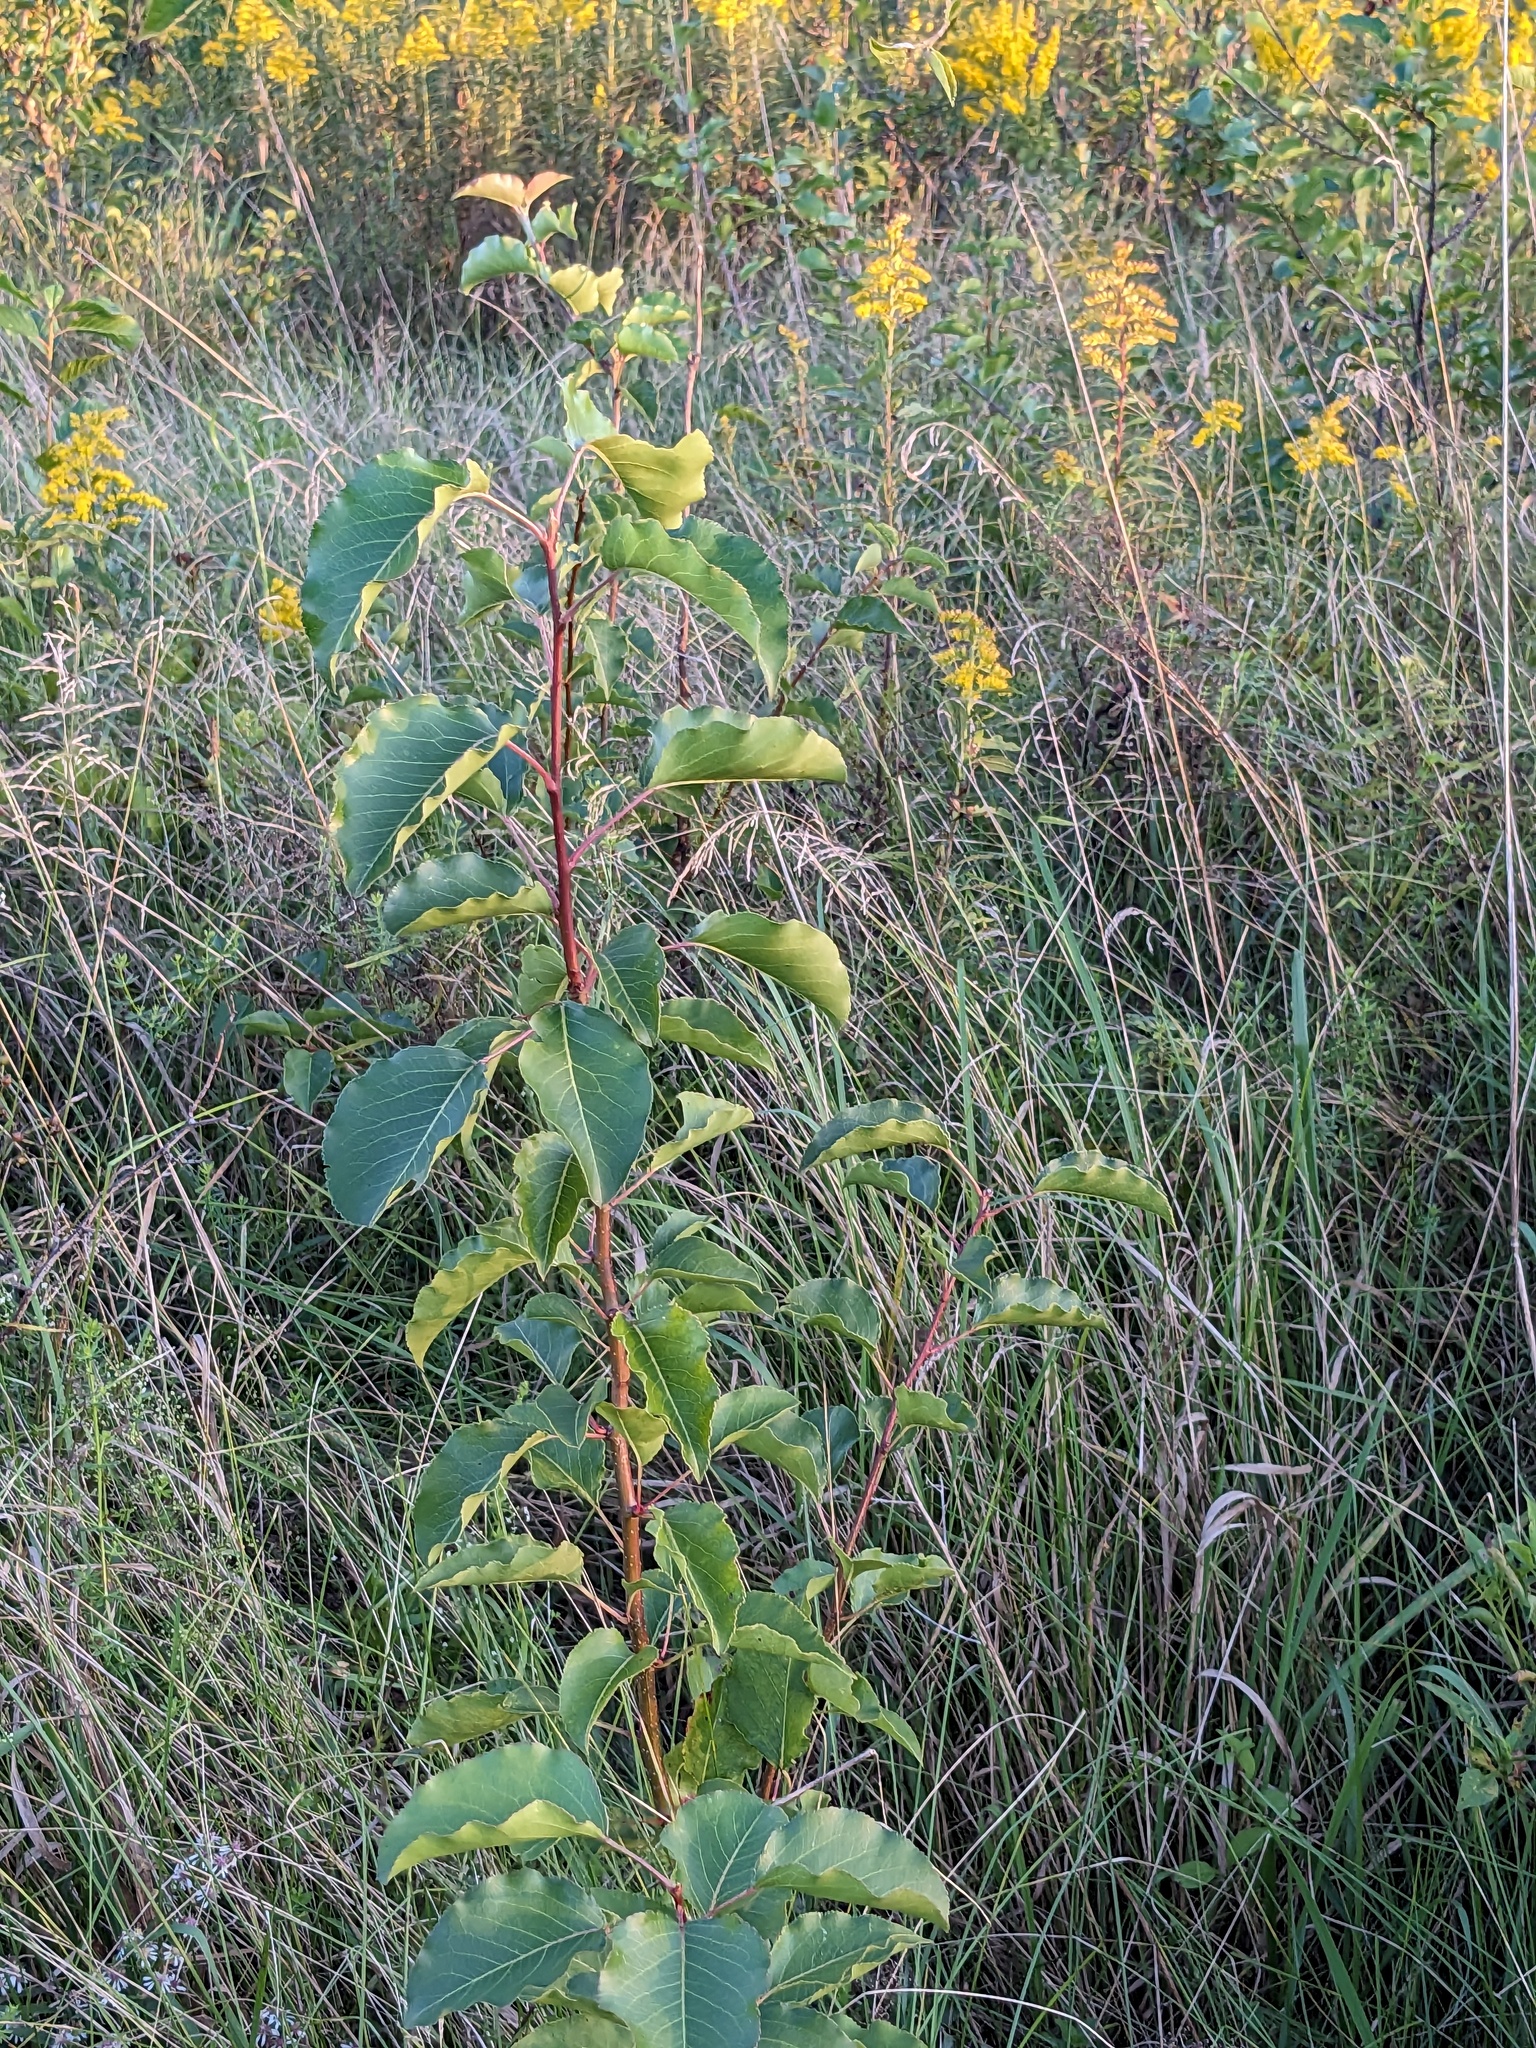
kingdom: Plantae
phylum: Tracheophyta
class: Magnoliopsida
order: Rosales
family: Rosaceae
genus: Pyrus
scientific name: Pyrus calleryana
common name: Callery pear
